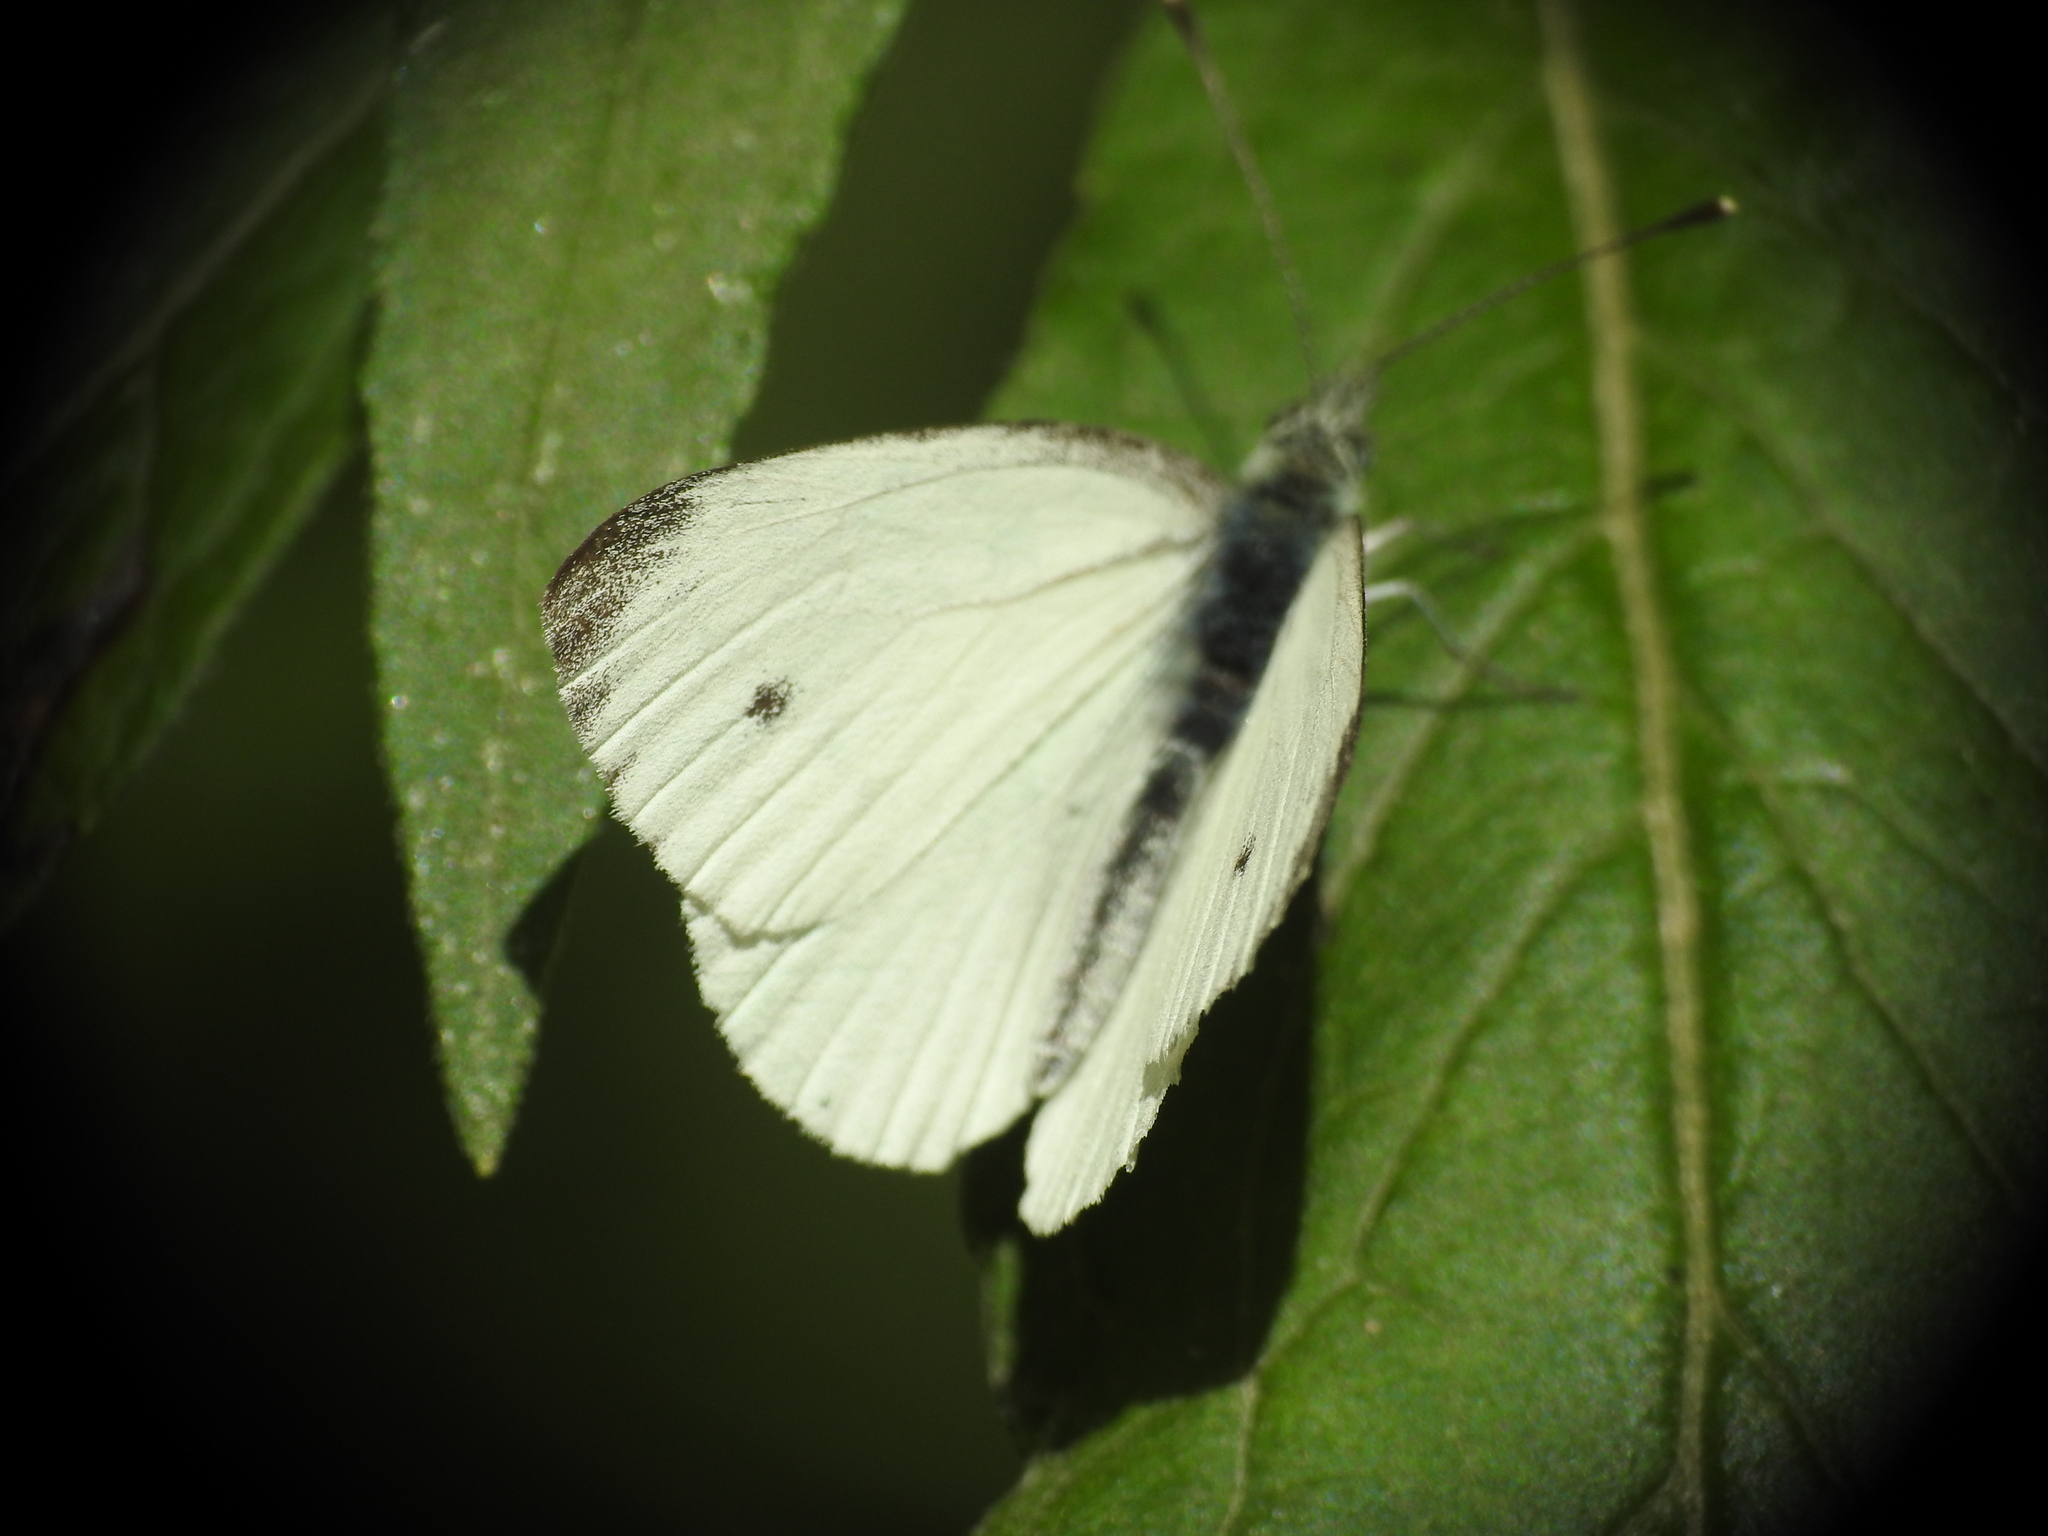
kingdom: Animalia
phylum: Arthropoda
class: Insecta
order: Lepidoptera
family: Pieridae
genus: Pieris
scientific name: Pieris napi
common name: Green-veined white
